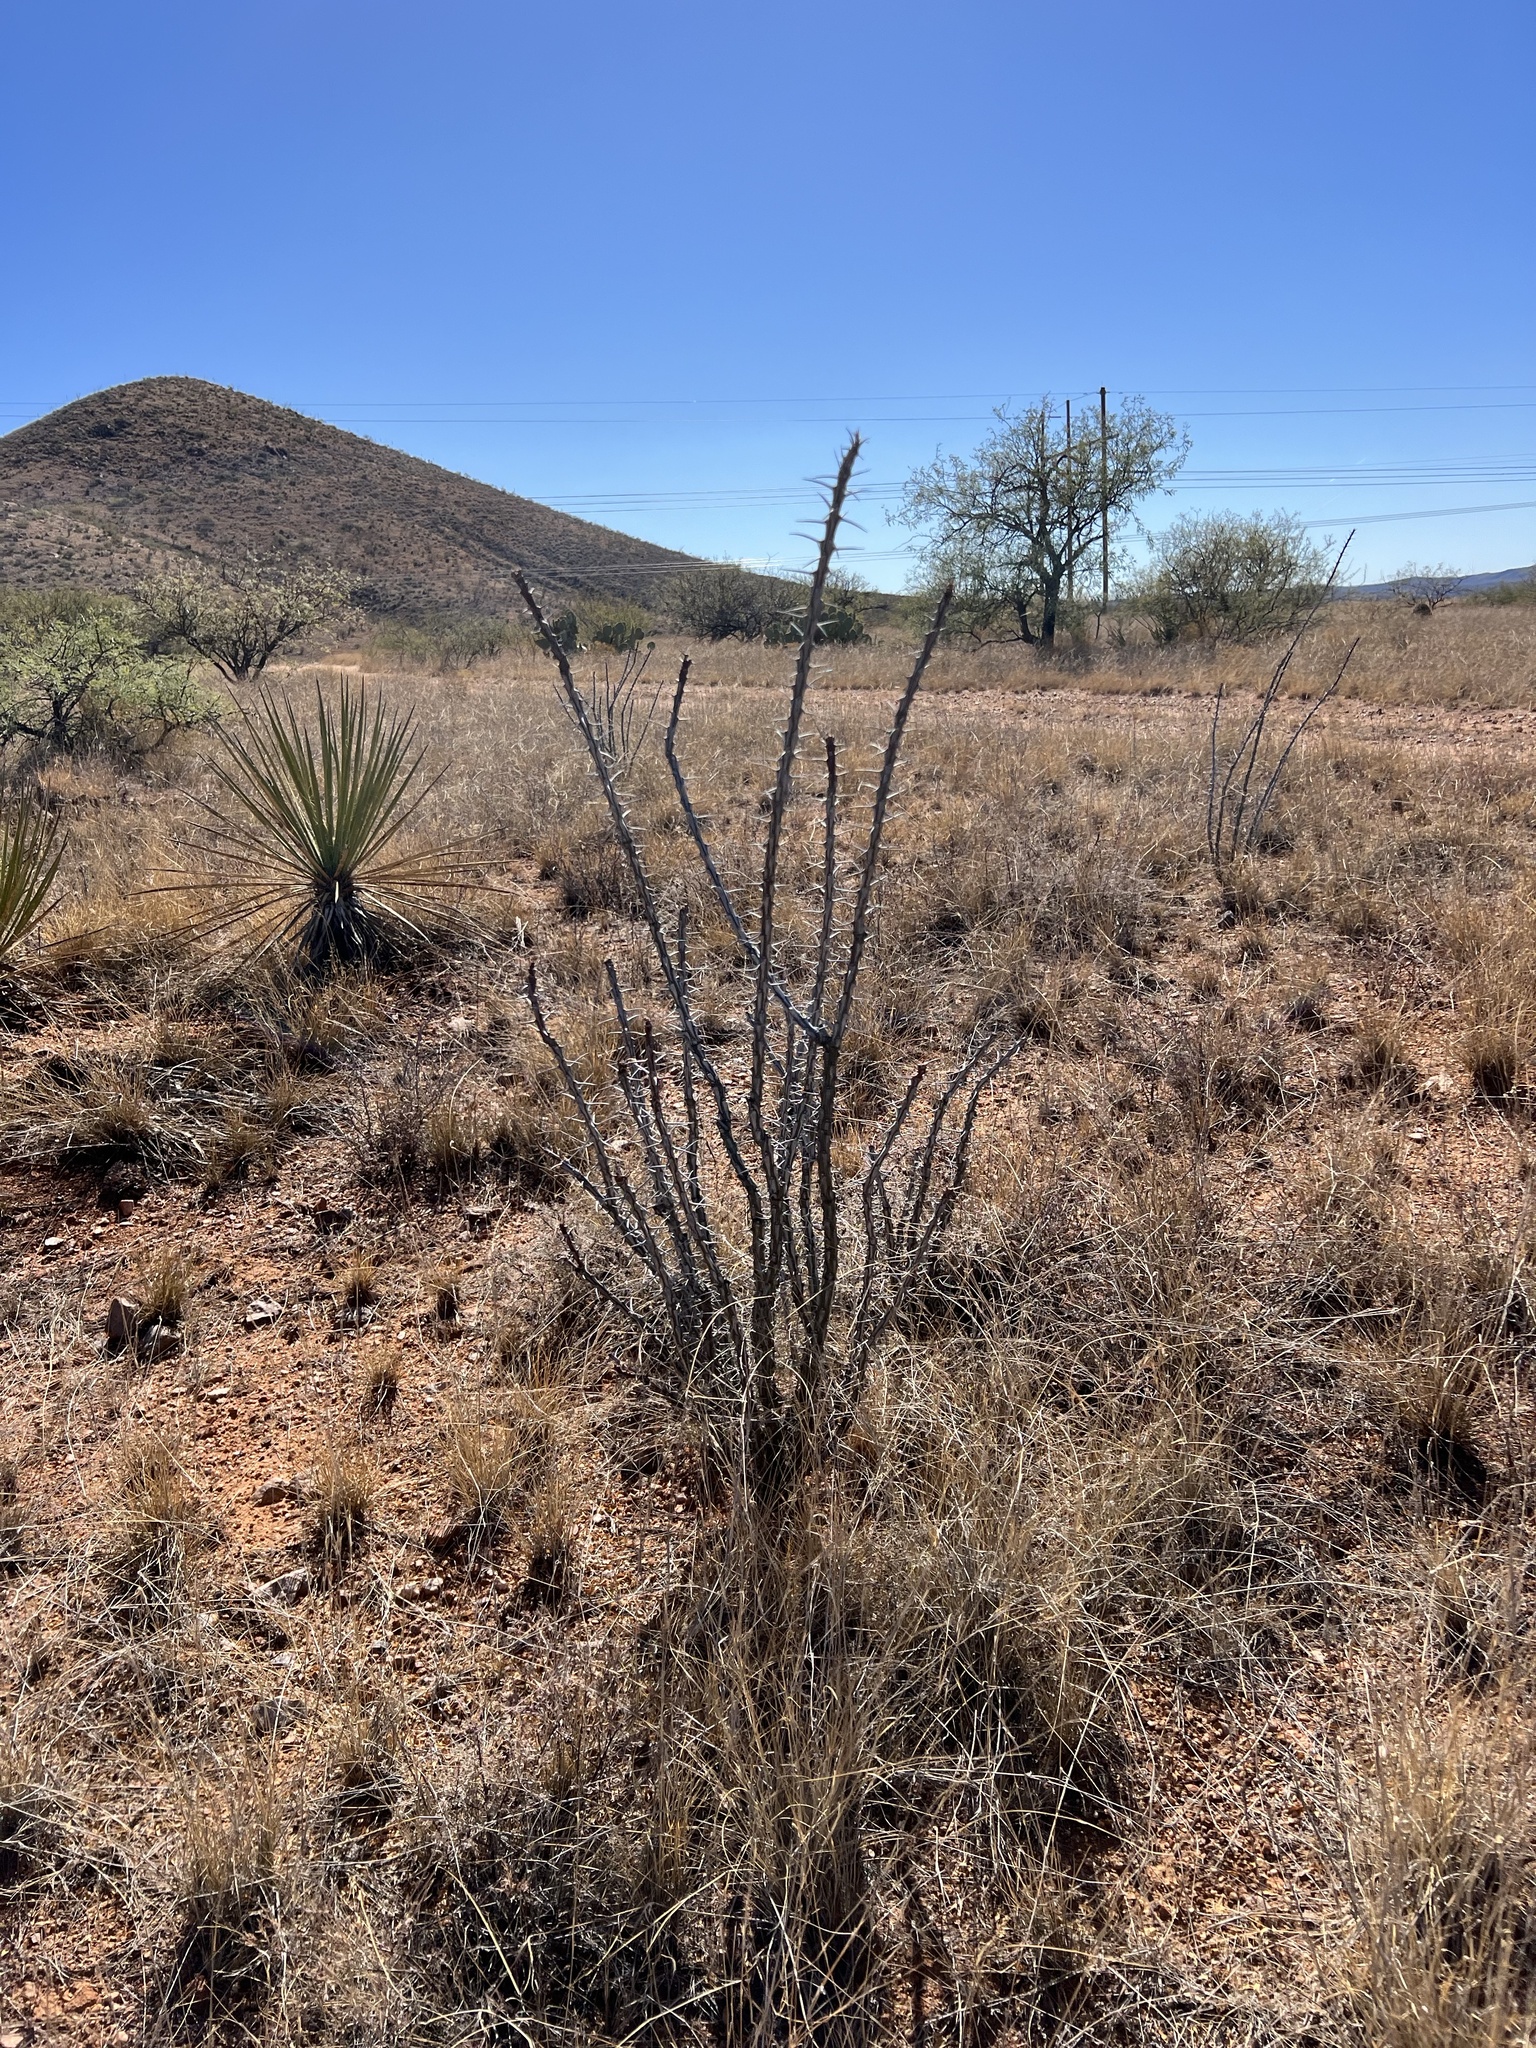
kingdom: Plantae
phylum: Tracheophyta
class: Magnoliopsida
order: Ericales
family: Fouquieriaceae
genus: Fouquieria
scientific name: Fouquieria splendens
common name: Vine-cactus
